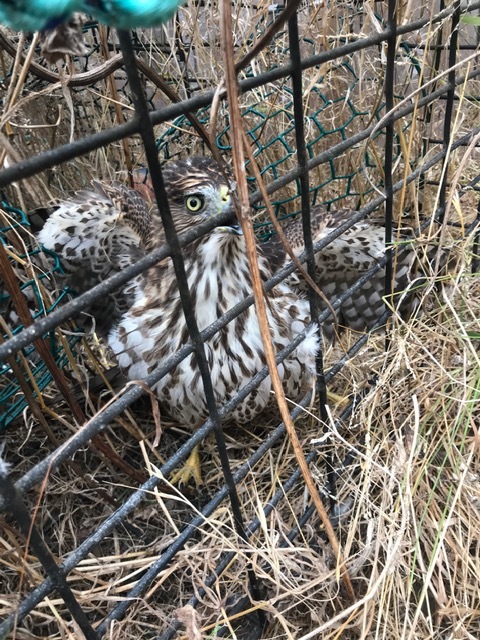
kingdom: Animalia
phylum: Chordata
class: Aves
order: Accipitriformes
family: Accipitridae
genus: Accipiter
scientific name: Accipiter cooperii
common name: Cooper's hawk
